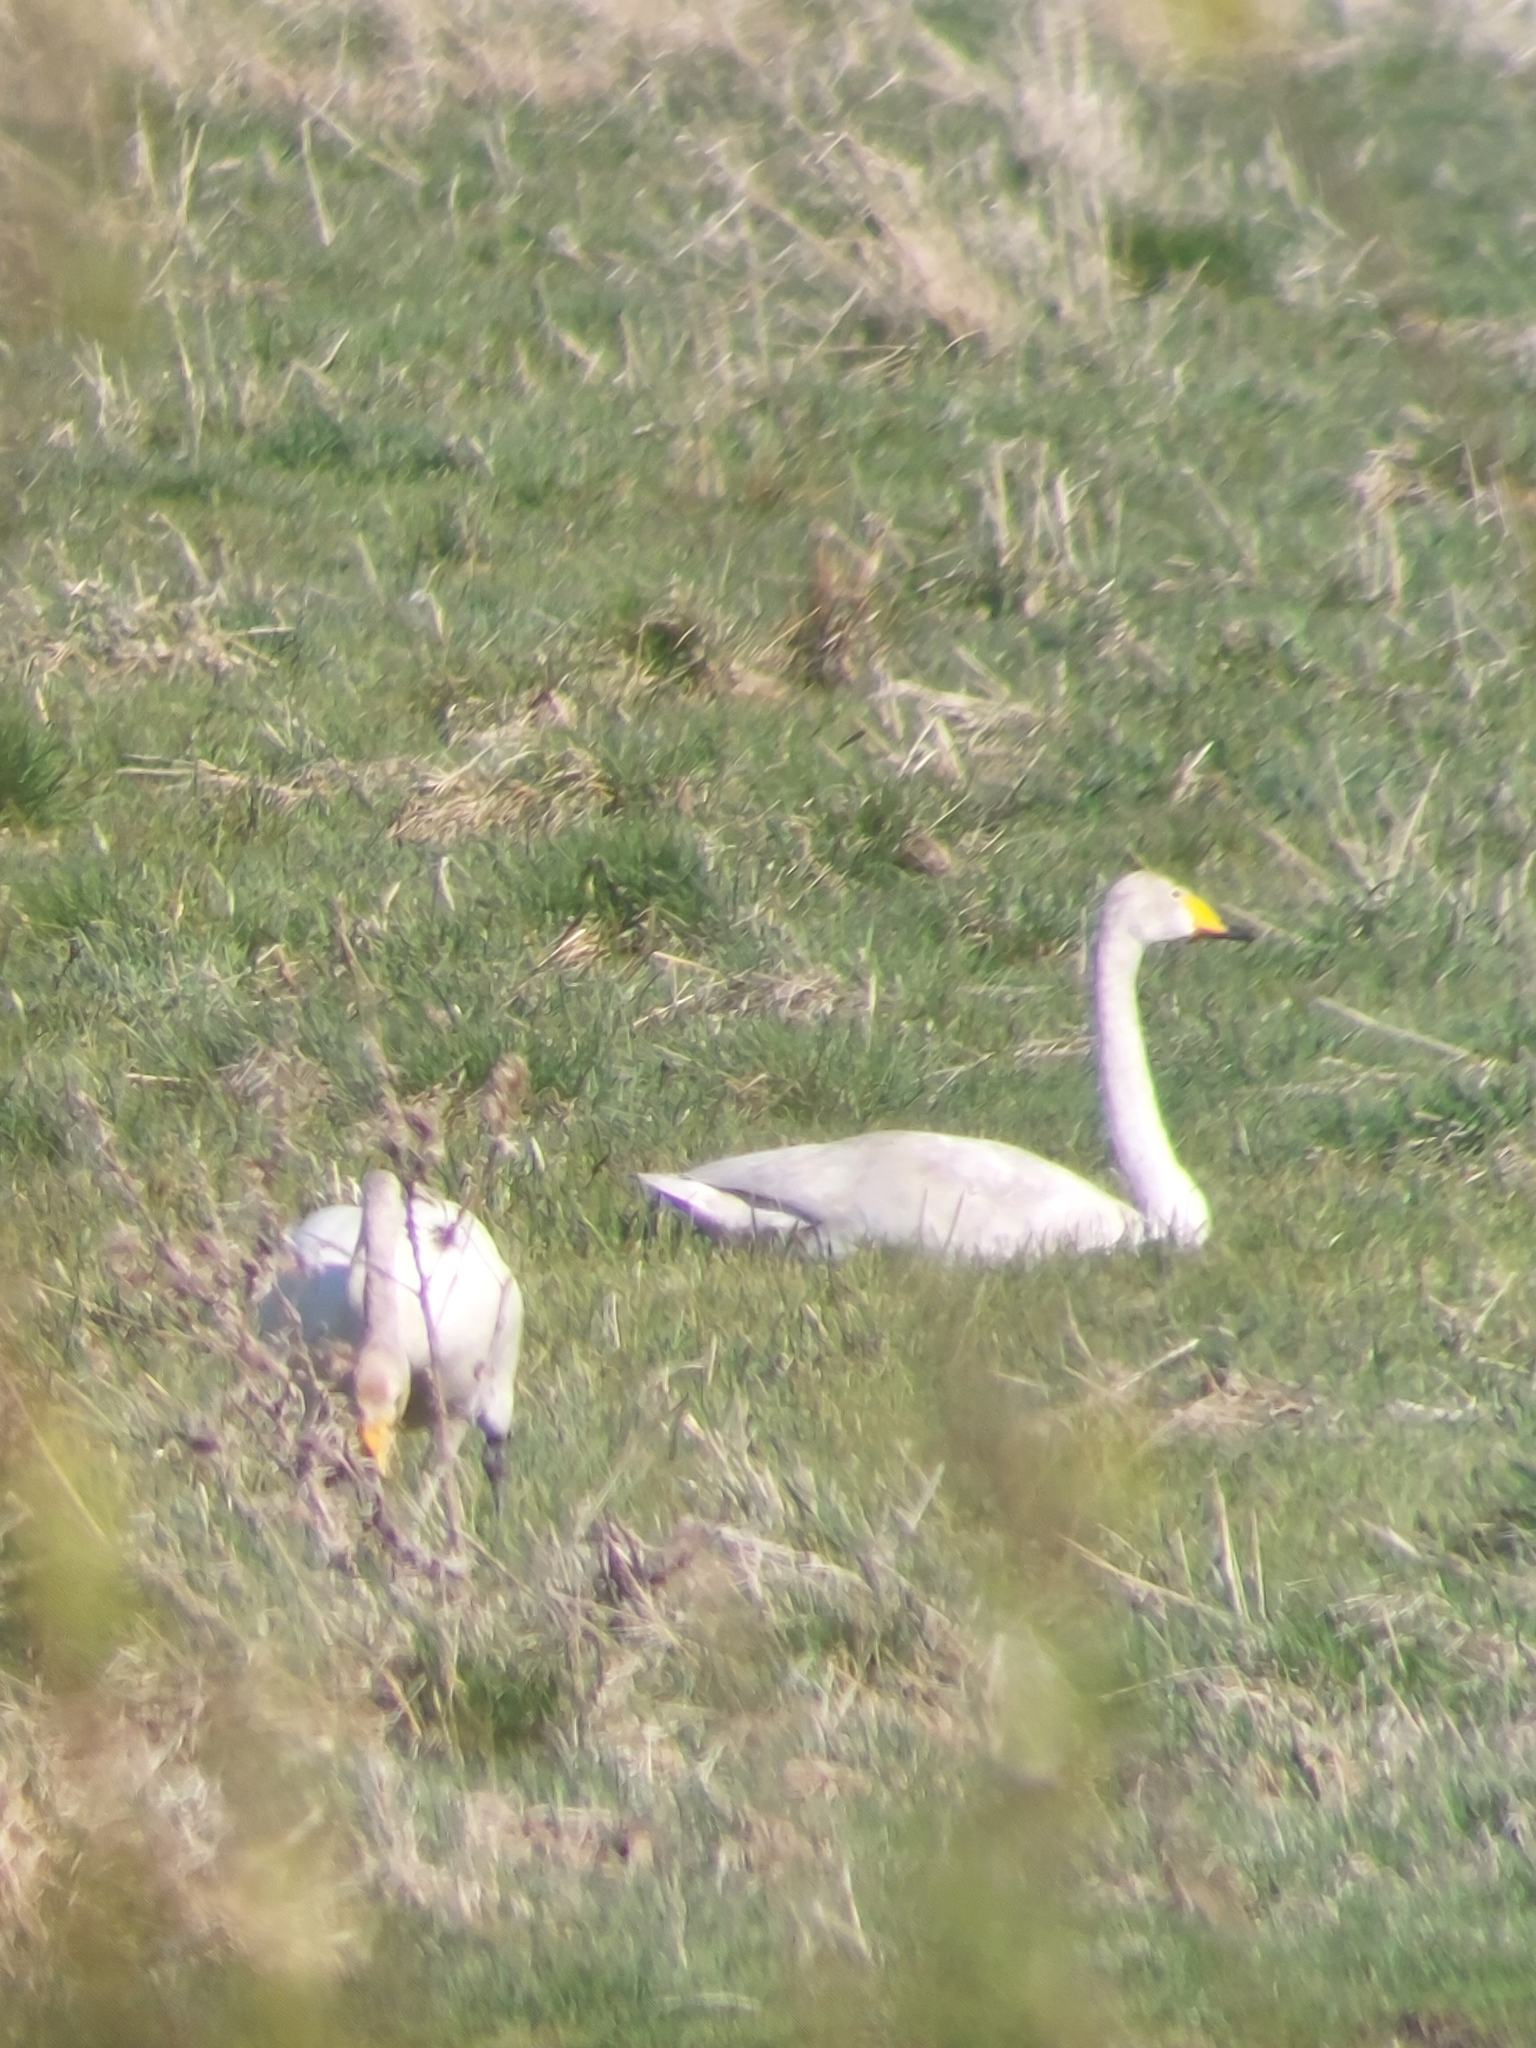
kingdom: Animalia
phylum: Chordata
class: Aves
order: Anseriformes
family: Anatidae
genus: Cygnus
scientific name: Cygnus cygnus
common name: Whooper swan
